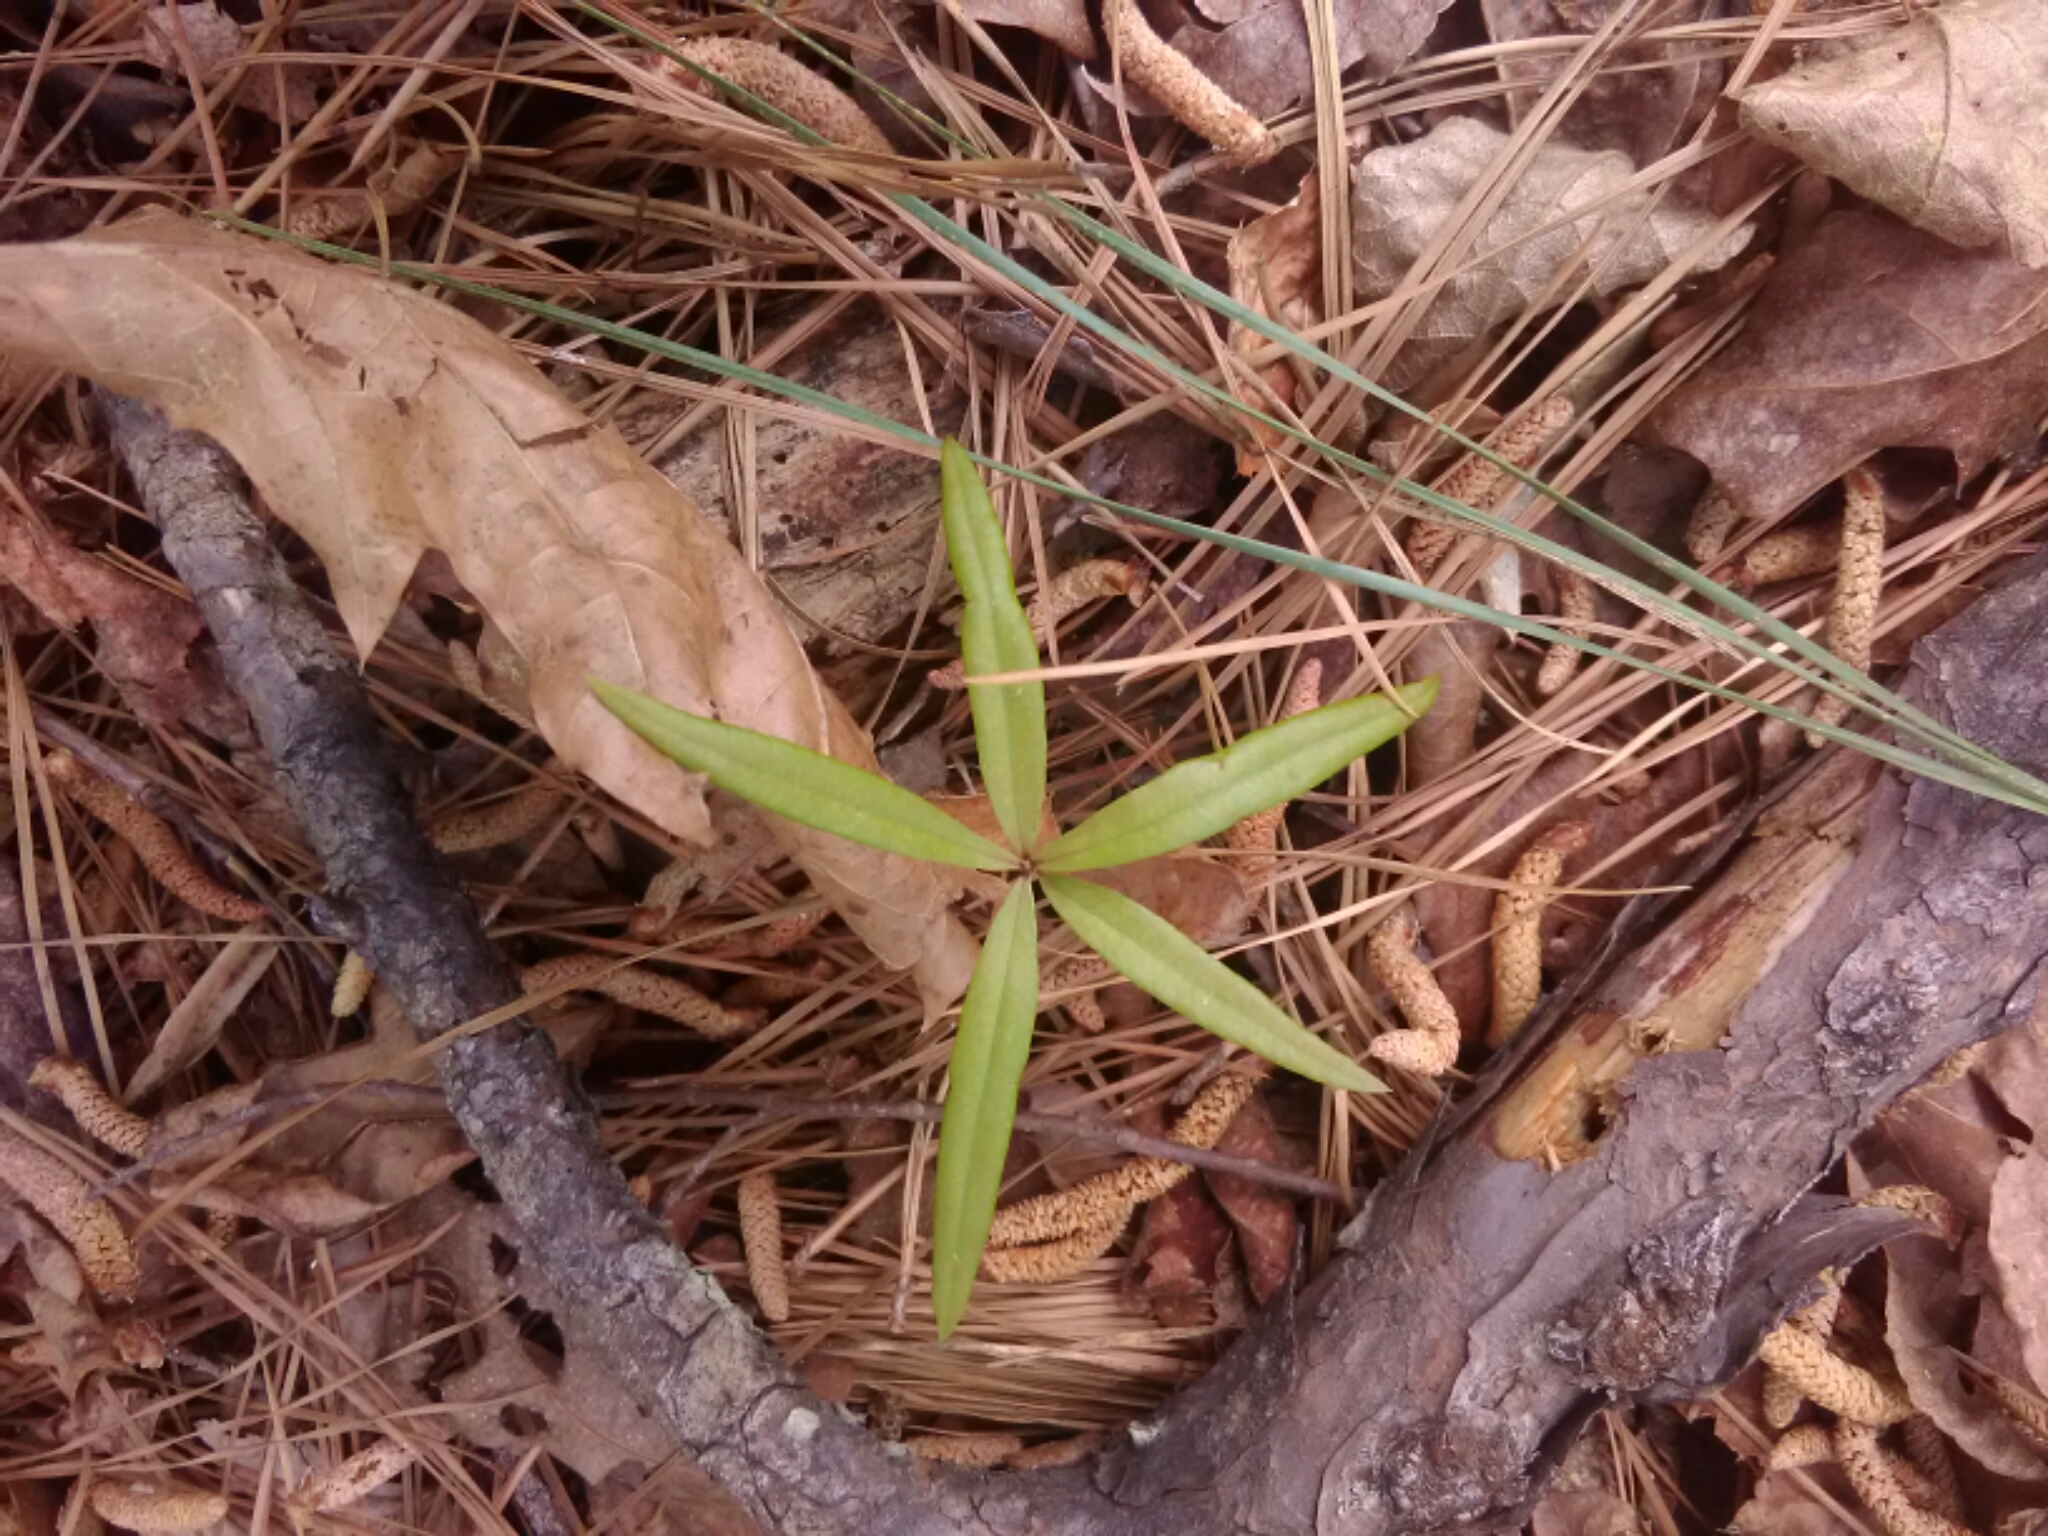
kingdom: Plantae
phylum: Tracheophyta
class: Magnoliopsida
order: Fagales
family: Fagaceae
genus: Quercus
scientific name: Quercus phellos
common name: Willow oak
